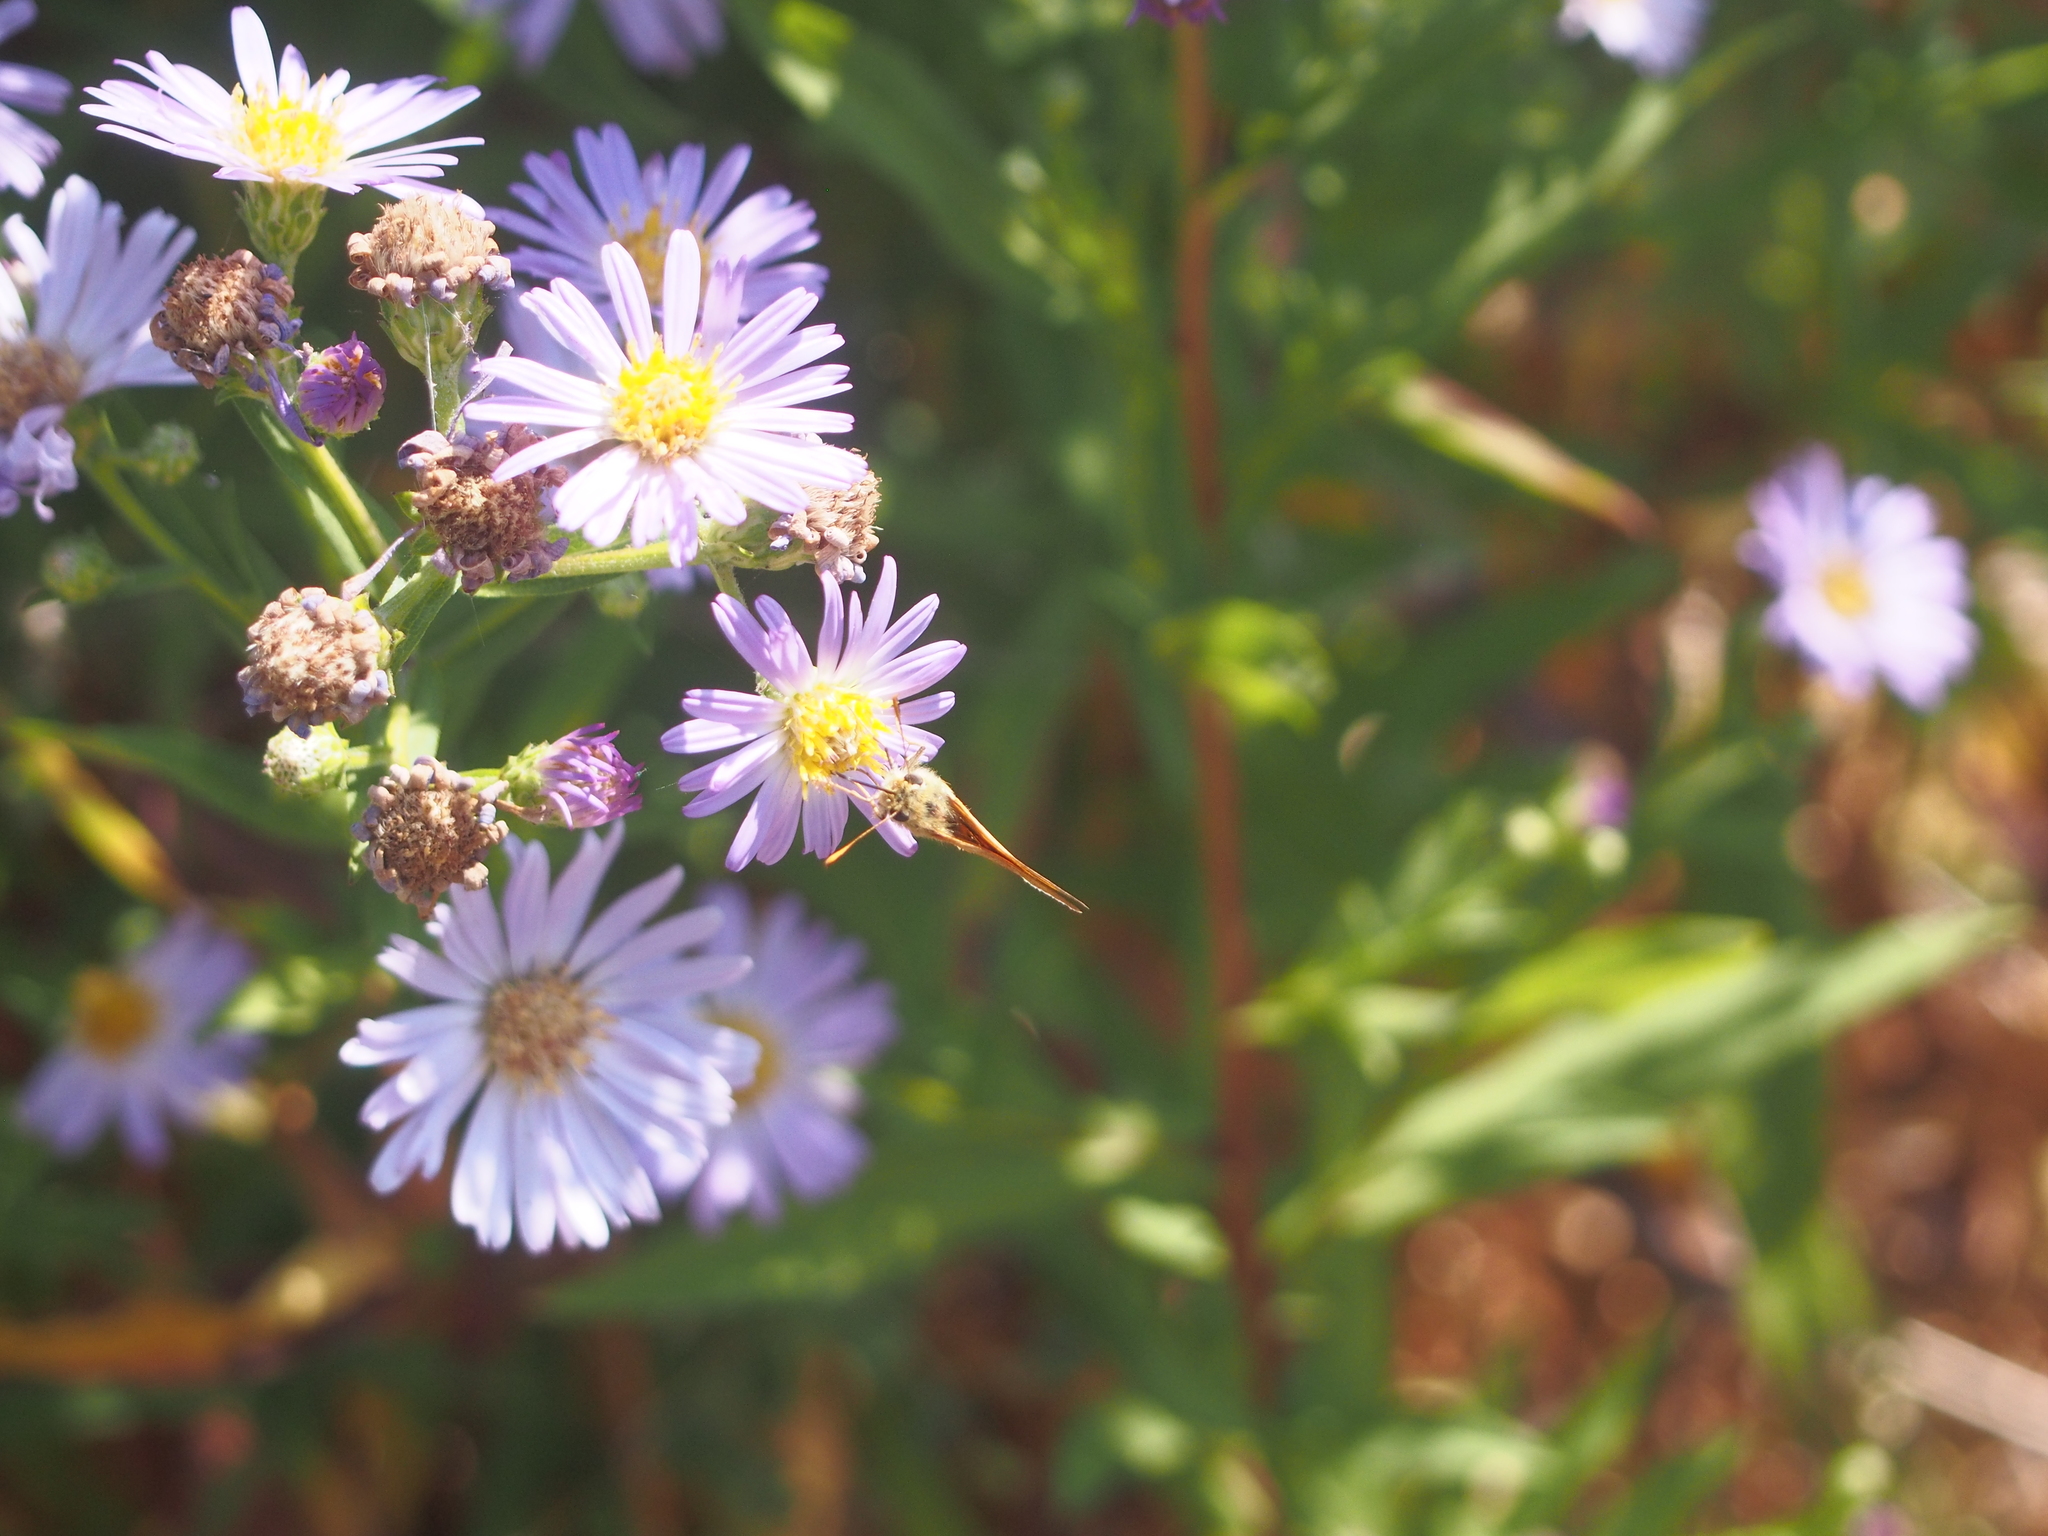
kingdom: Animalia
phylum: Arthropoda
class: Insecta
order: Lepidoptera
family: Hesperiidae
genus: Ochlodes
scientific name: Ochlodes sylvanoides
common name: Woodland skipper
